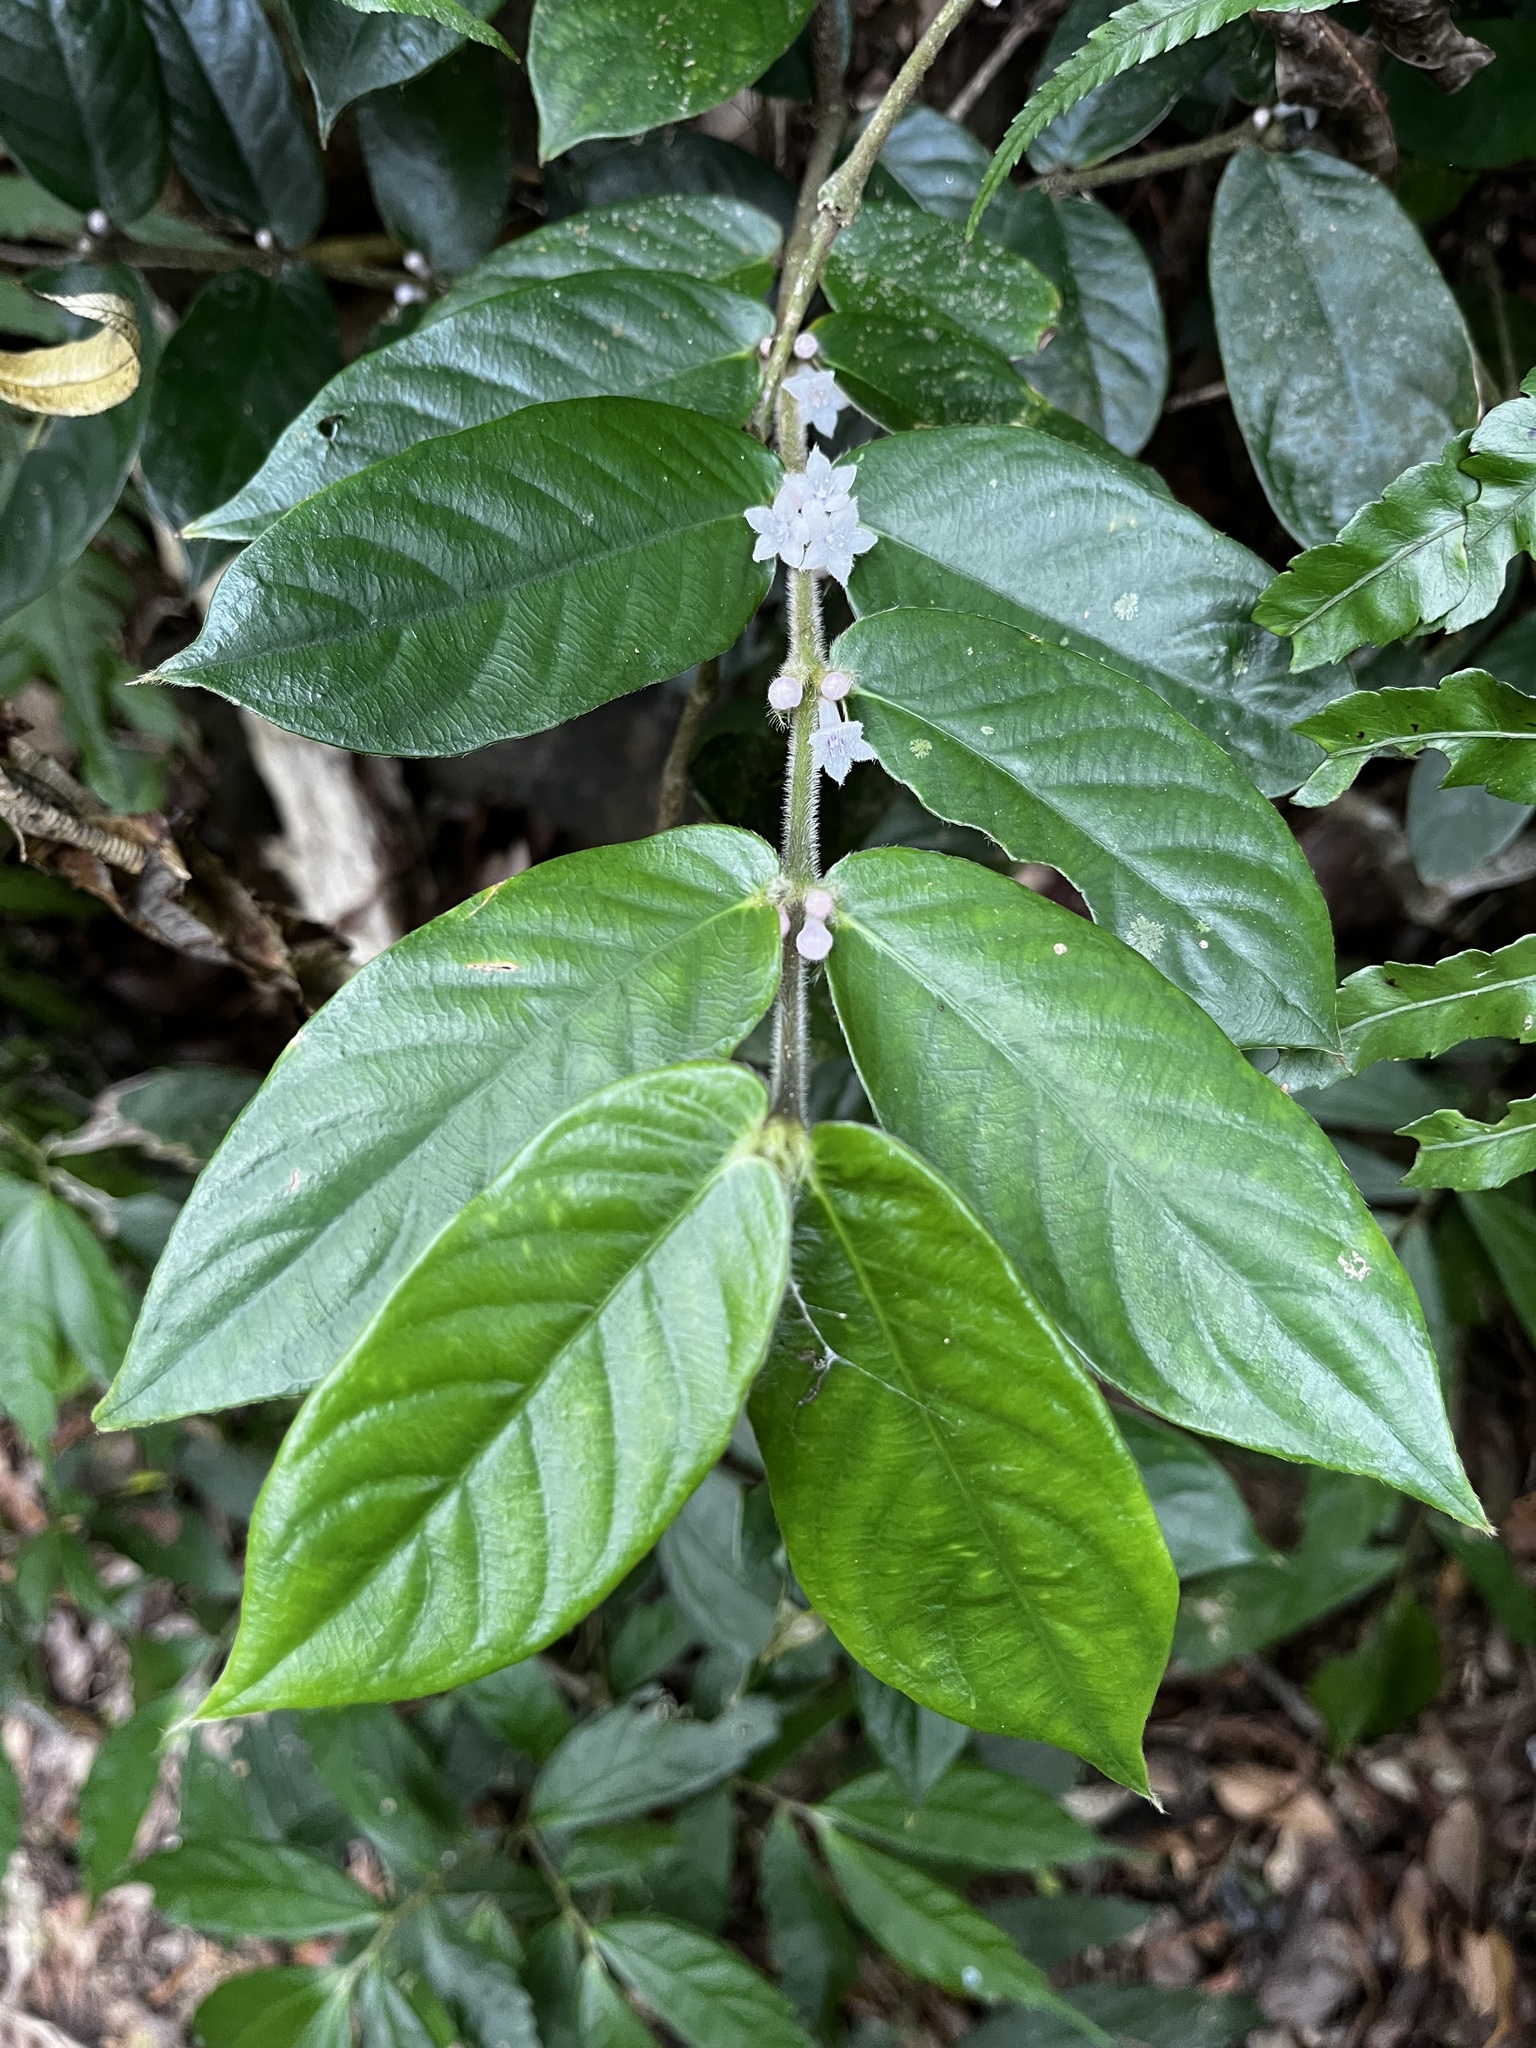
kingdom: Plantae
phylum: Tracheophyta
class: Magnoliopsida
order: Gentianales
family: Rubiaceae
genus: Lasianthus
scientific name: Lasianthus attenuatus
